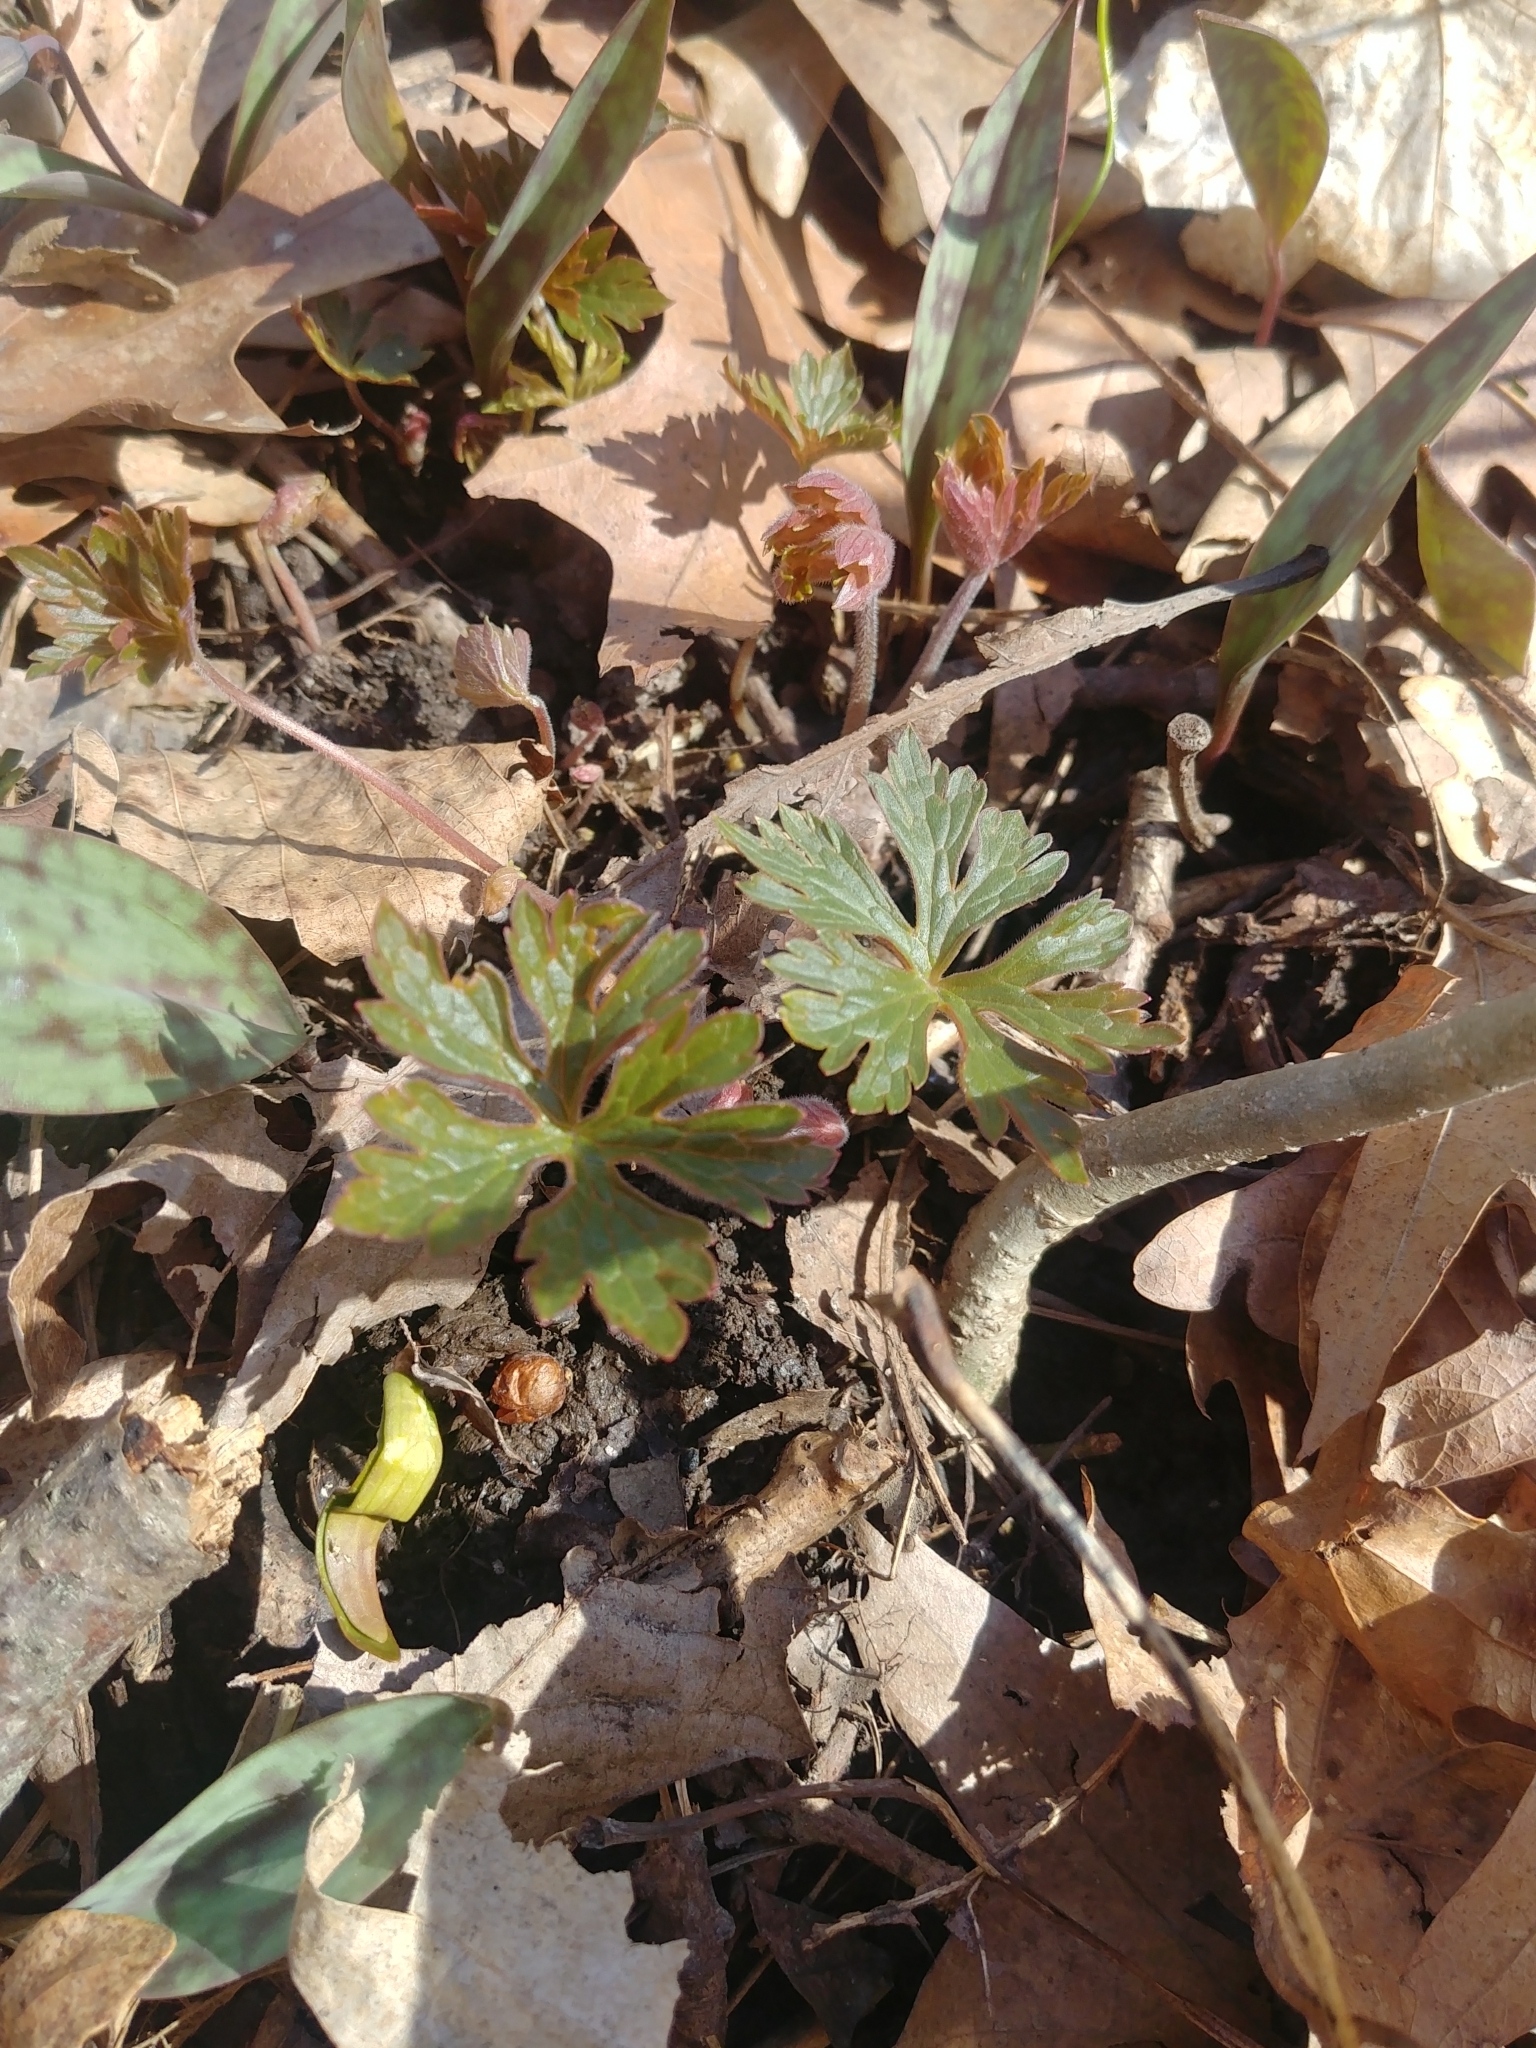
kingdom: Plantae
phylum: Tracheophyta
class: Magnoliopsida
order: Geraniales
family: Geraniaceae
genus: Geranium
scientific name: Geranium maculatum
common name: Spotted geranium
